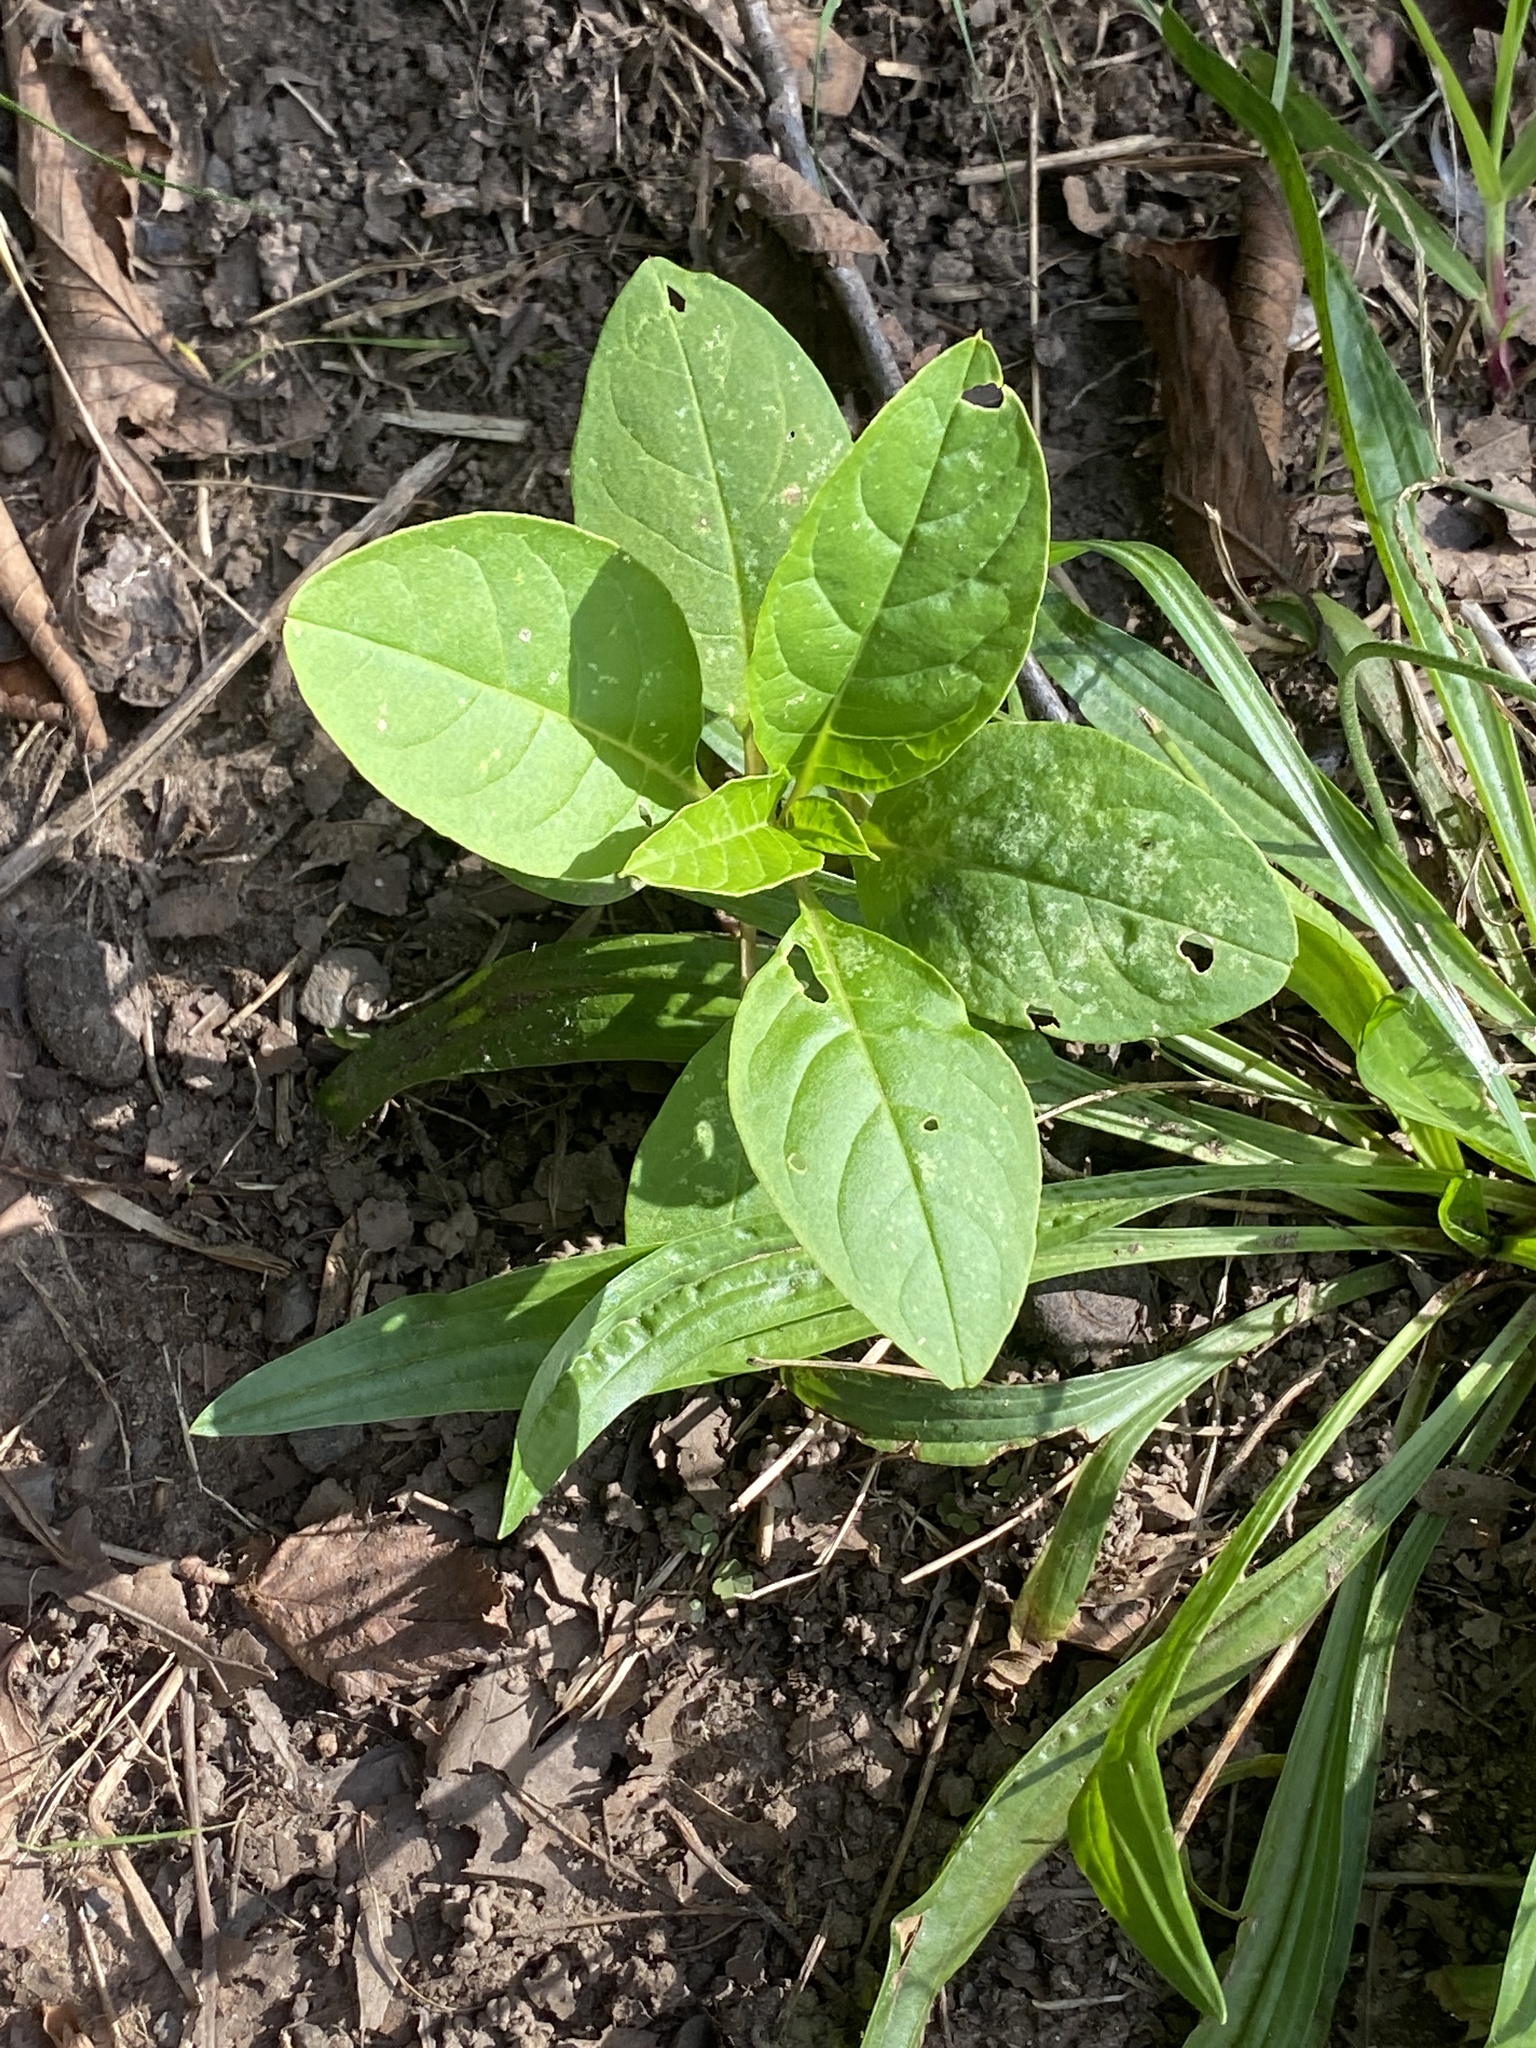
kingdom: Plantae
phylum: Tracheophyta
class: Magnoliopsida
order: Caryophyllales
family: Phytolaccaceae
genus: Phytolacca
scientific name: Phytolacca americana
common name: American pokeweed
